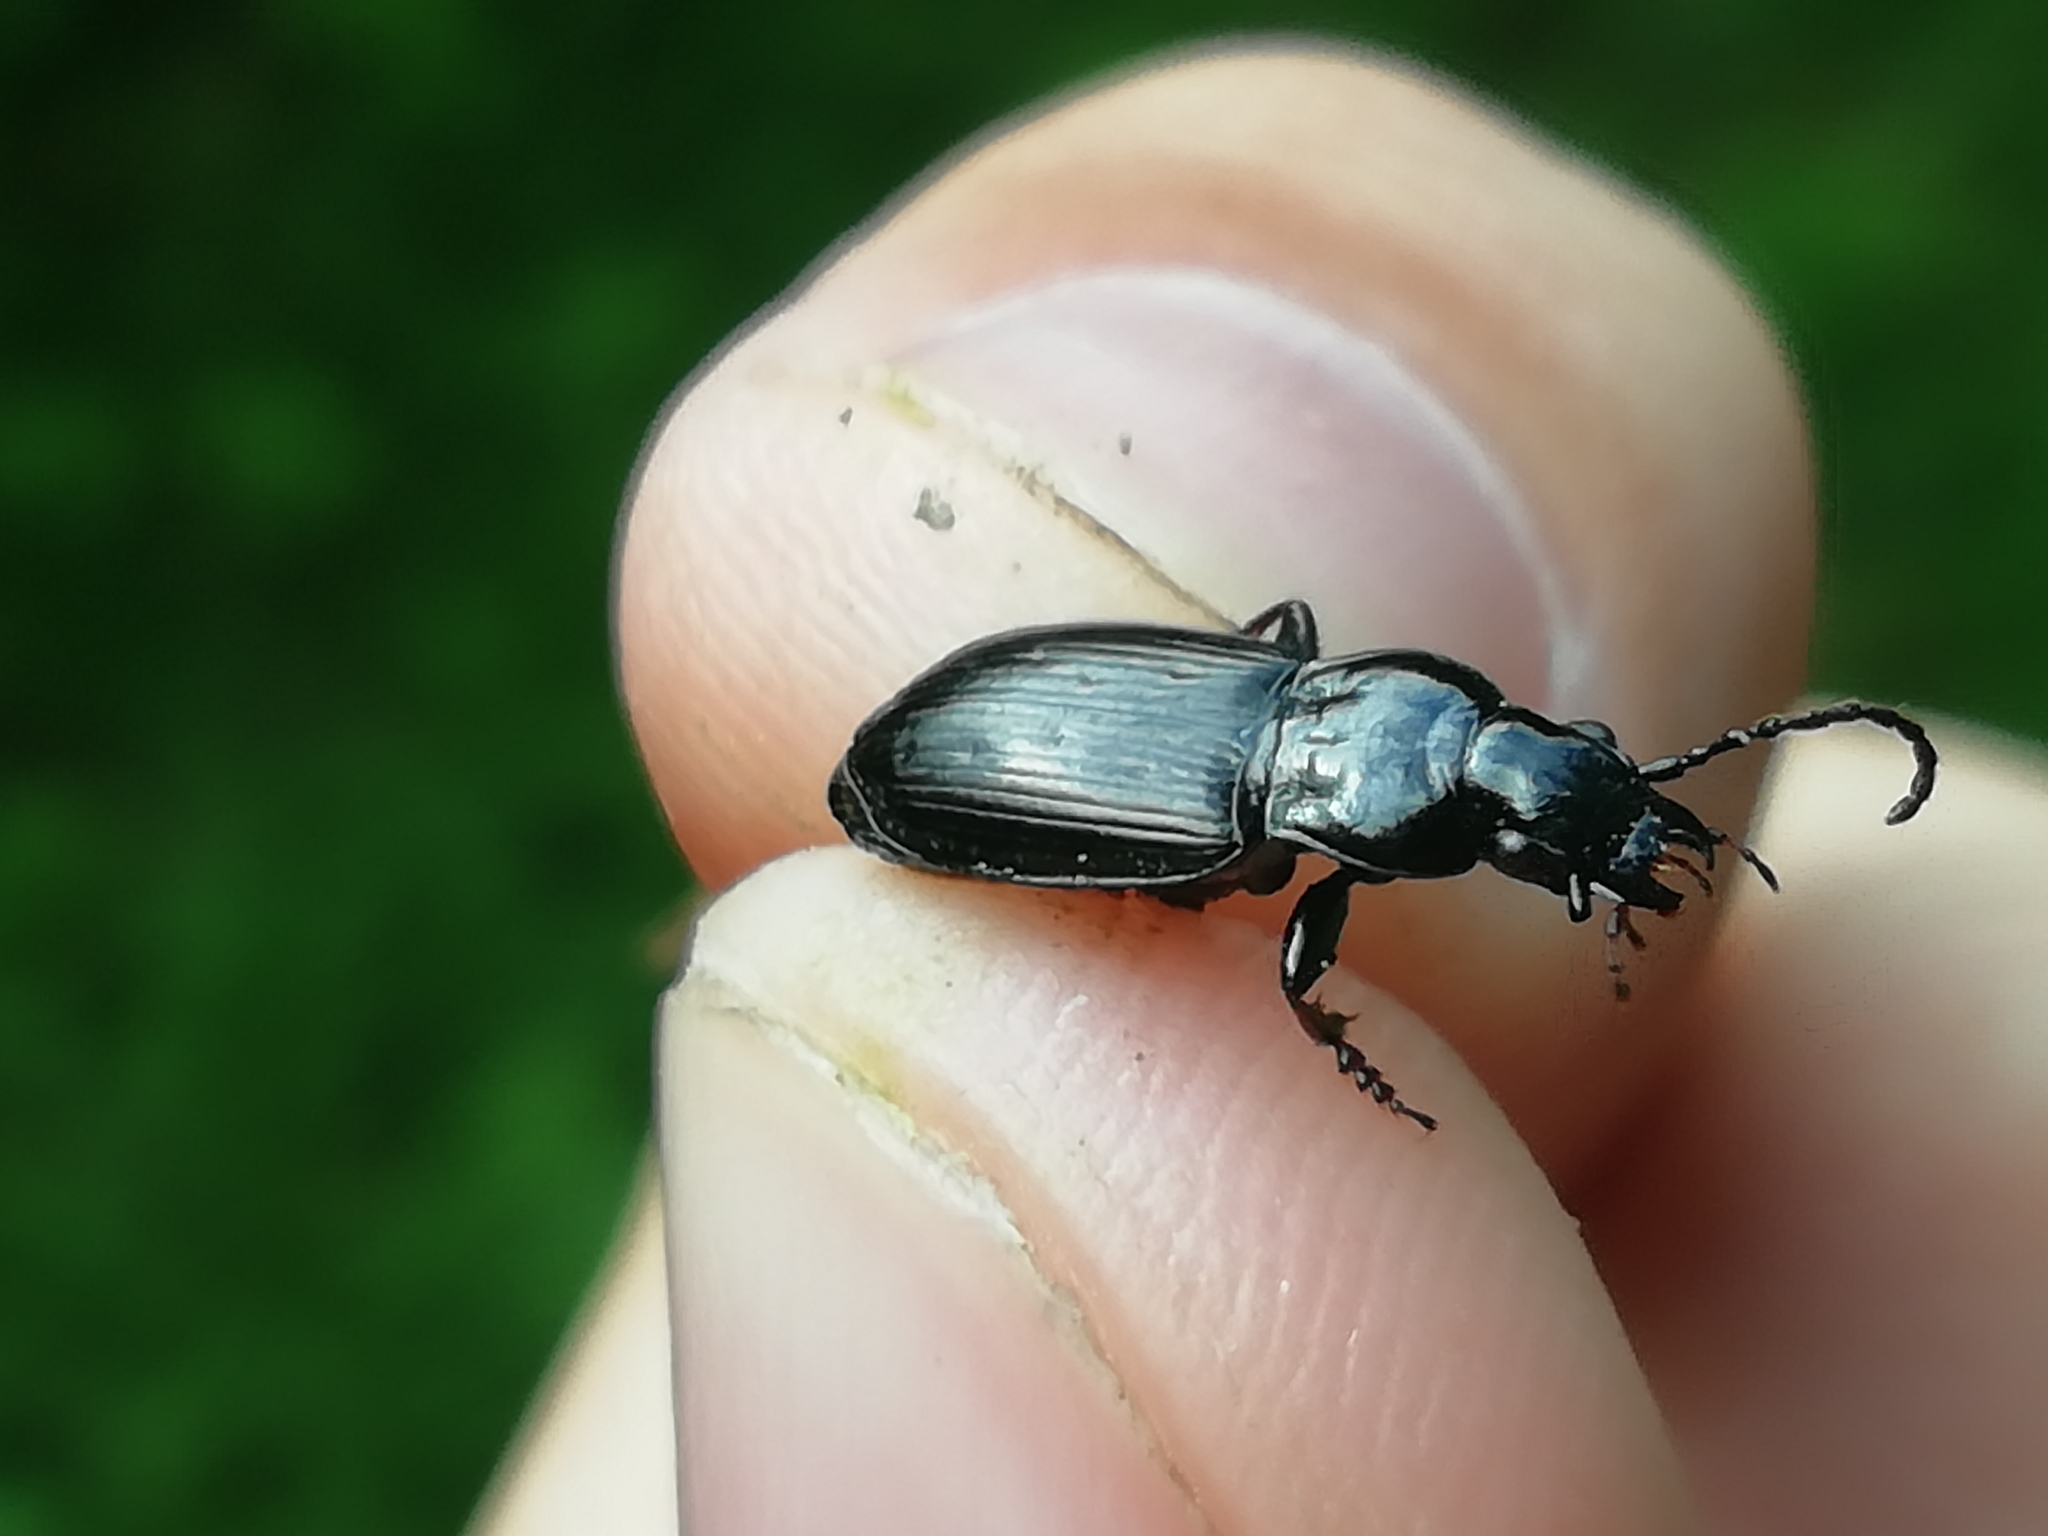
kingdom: Animalia
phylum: Arthropoda
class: Insecta
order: Coleoptera
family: Carabidae
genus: Pterostichus
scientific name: Pterostichus oblongopunctatus
